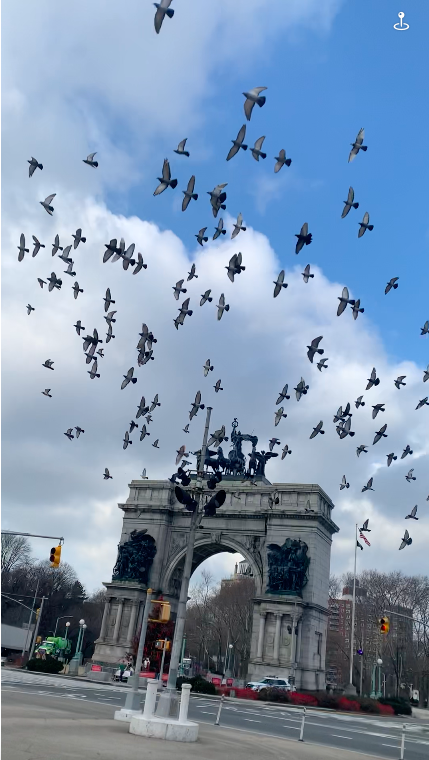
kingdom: Animalia
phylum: Chordata
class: Aves
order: Columbiformes
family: Columbidae
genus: Columba
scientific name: Columba livia
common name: Rock pigeon
